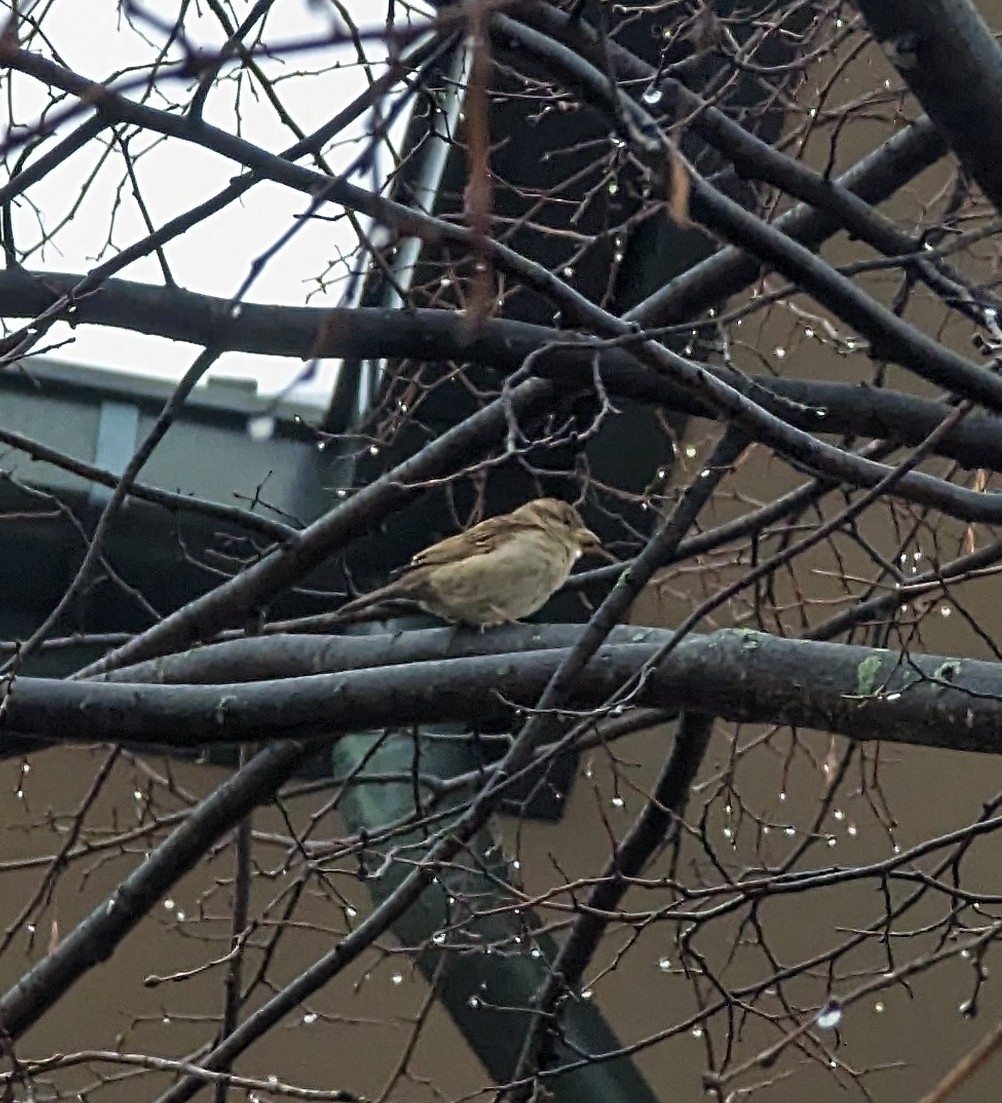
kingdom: Animalia
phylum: Chordata
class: Aves
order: Passeriformes
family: Passeridae
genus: Passer
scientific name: Passer domesticus
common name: House sparrow
